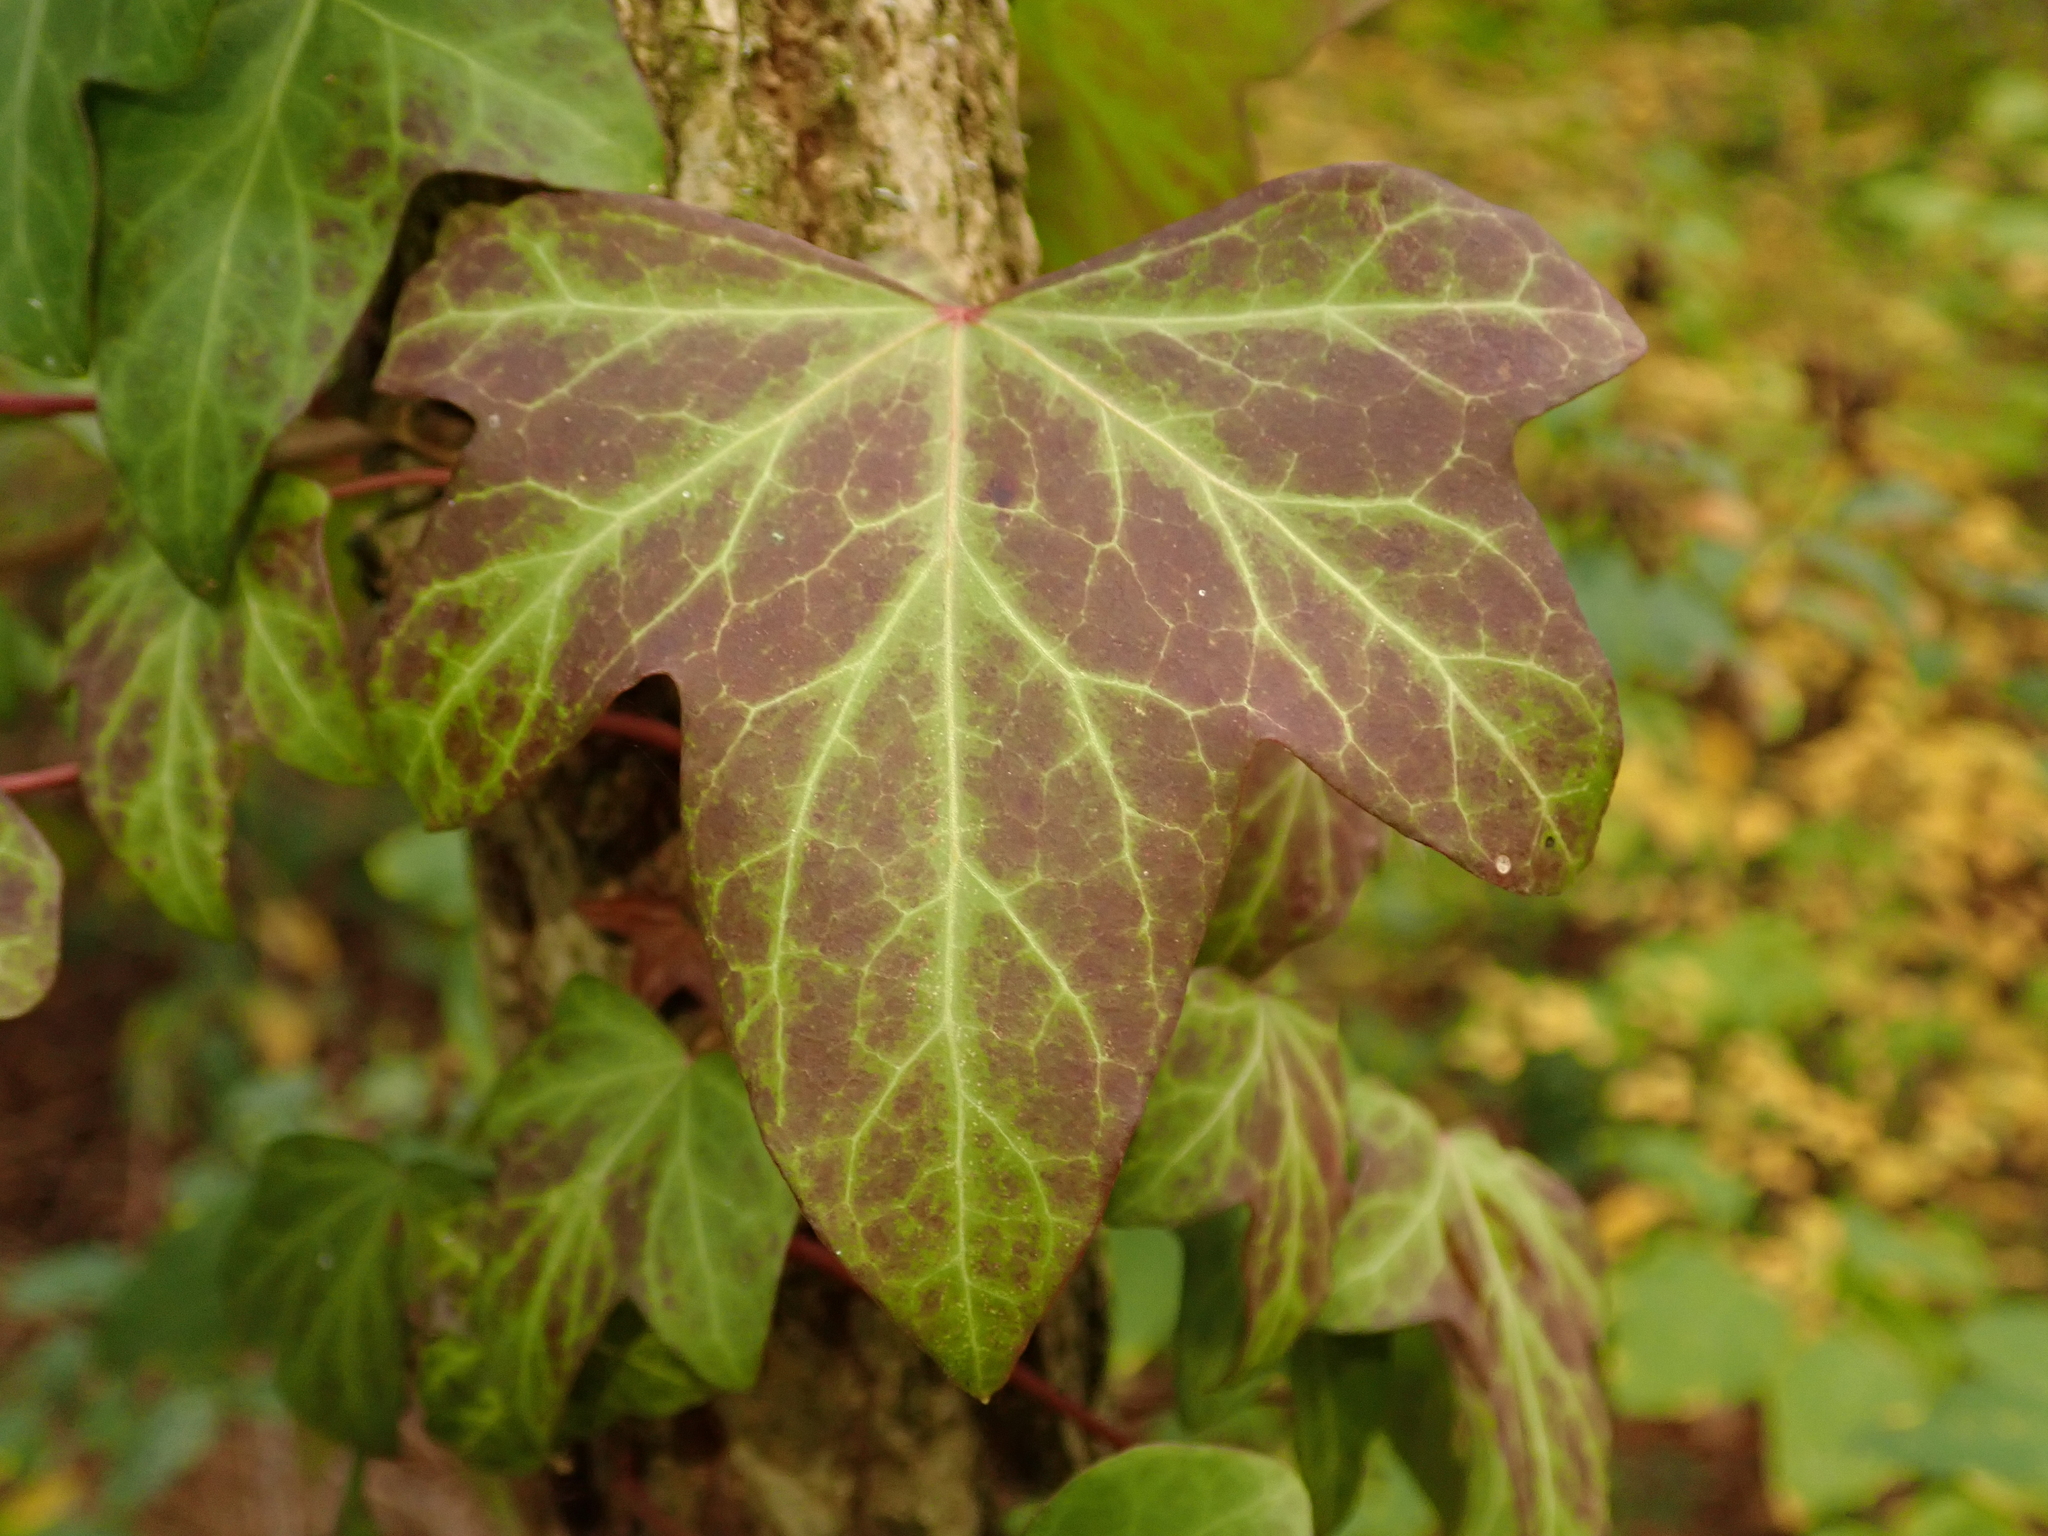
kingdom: Plantae
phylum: Tracheophyta
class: Magnoliopsida
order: Apiales
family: Araliaceae
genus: Hedera
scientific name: Hedera helix
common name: Ivy
